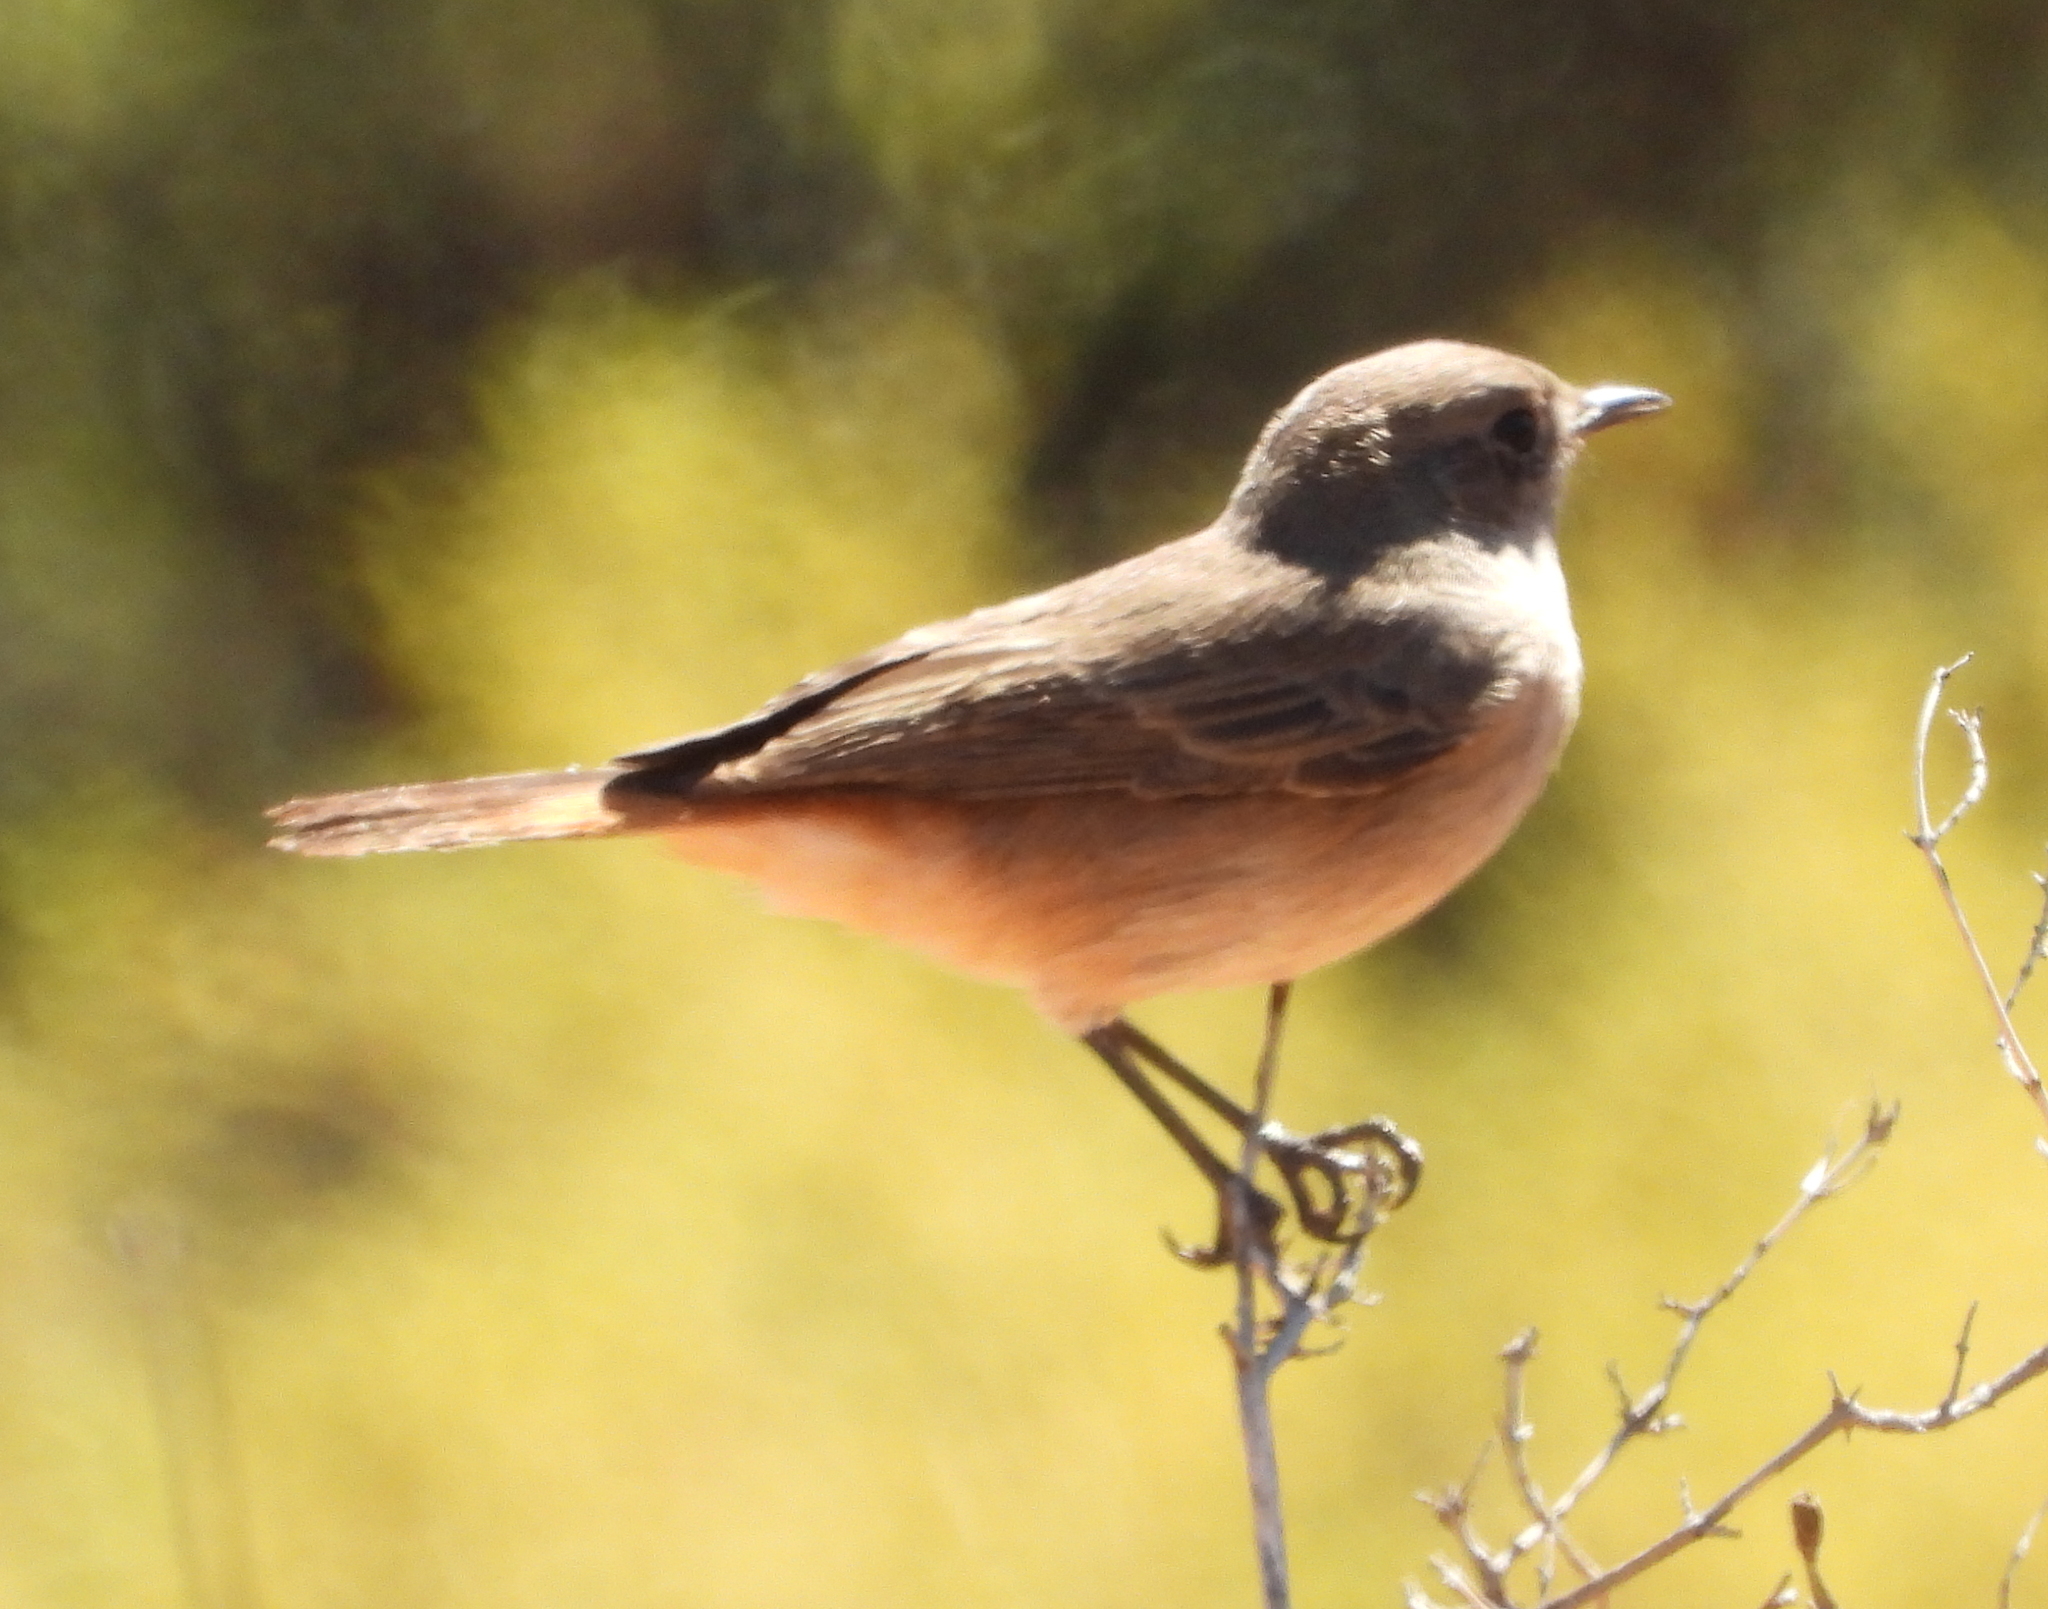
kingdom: Animalia
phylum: Chordata
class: Aves
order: Passeriformes
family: Muscicapidae
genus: Oenanthe
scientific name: Oenanthe familiaris
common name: Familiar chat
